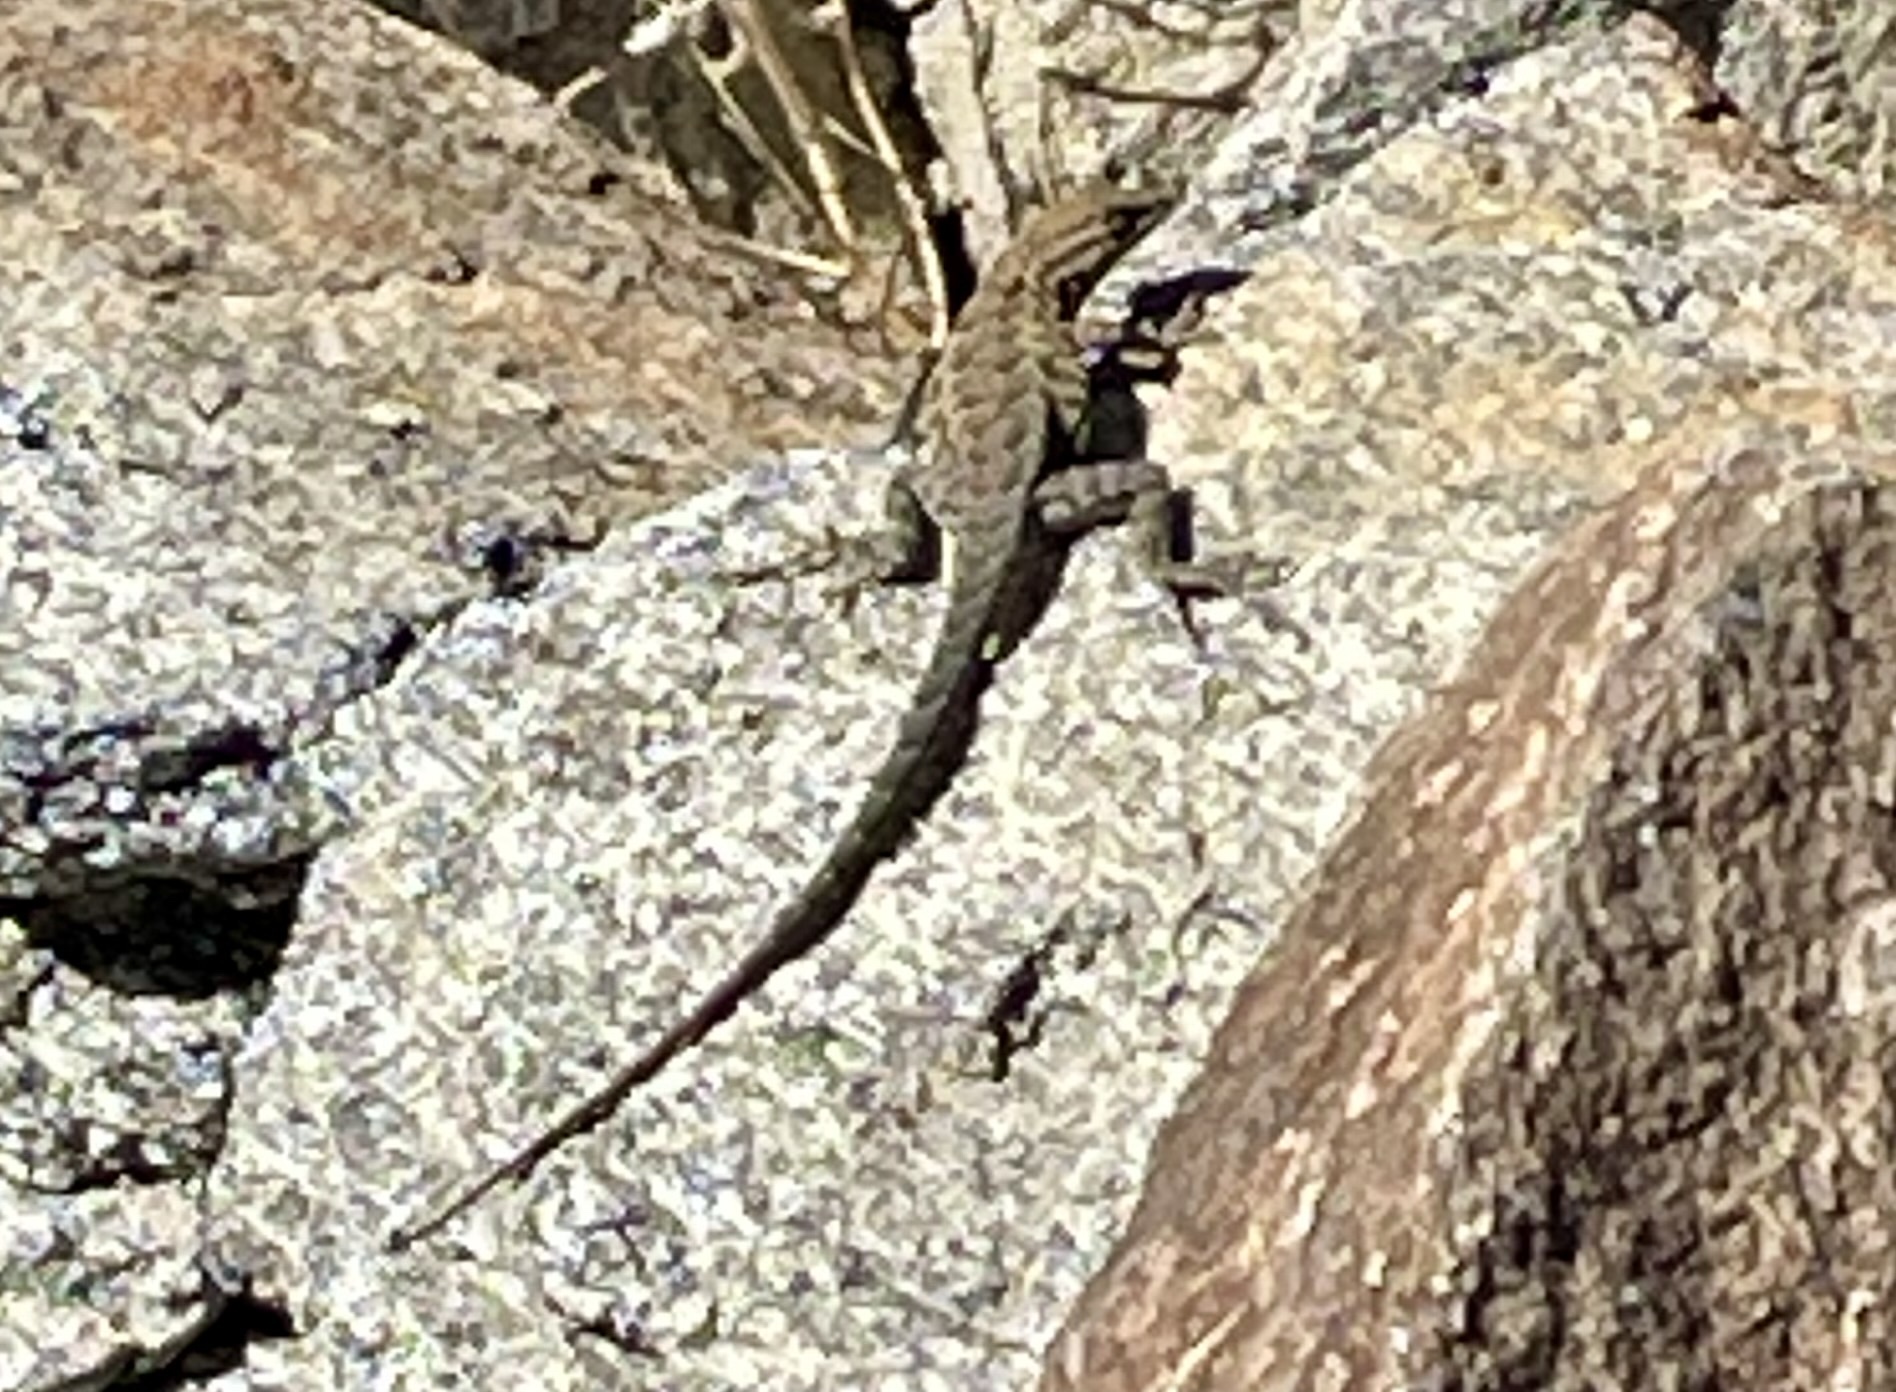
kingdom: Animalia
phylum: Chordata
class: Squamata
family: Phrynosomatidae
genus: Uta
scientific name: Uta stansburiana
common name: Side-blotched lizard
